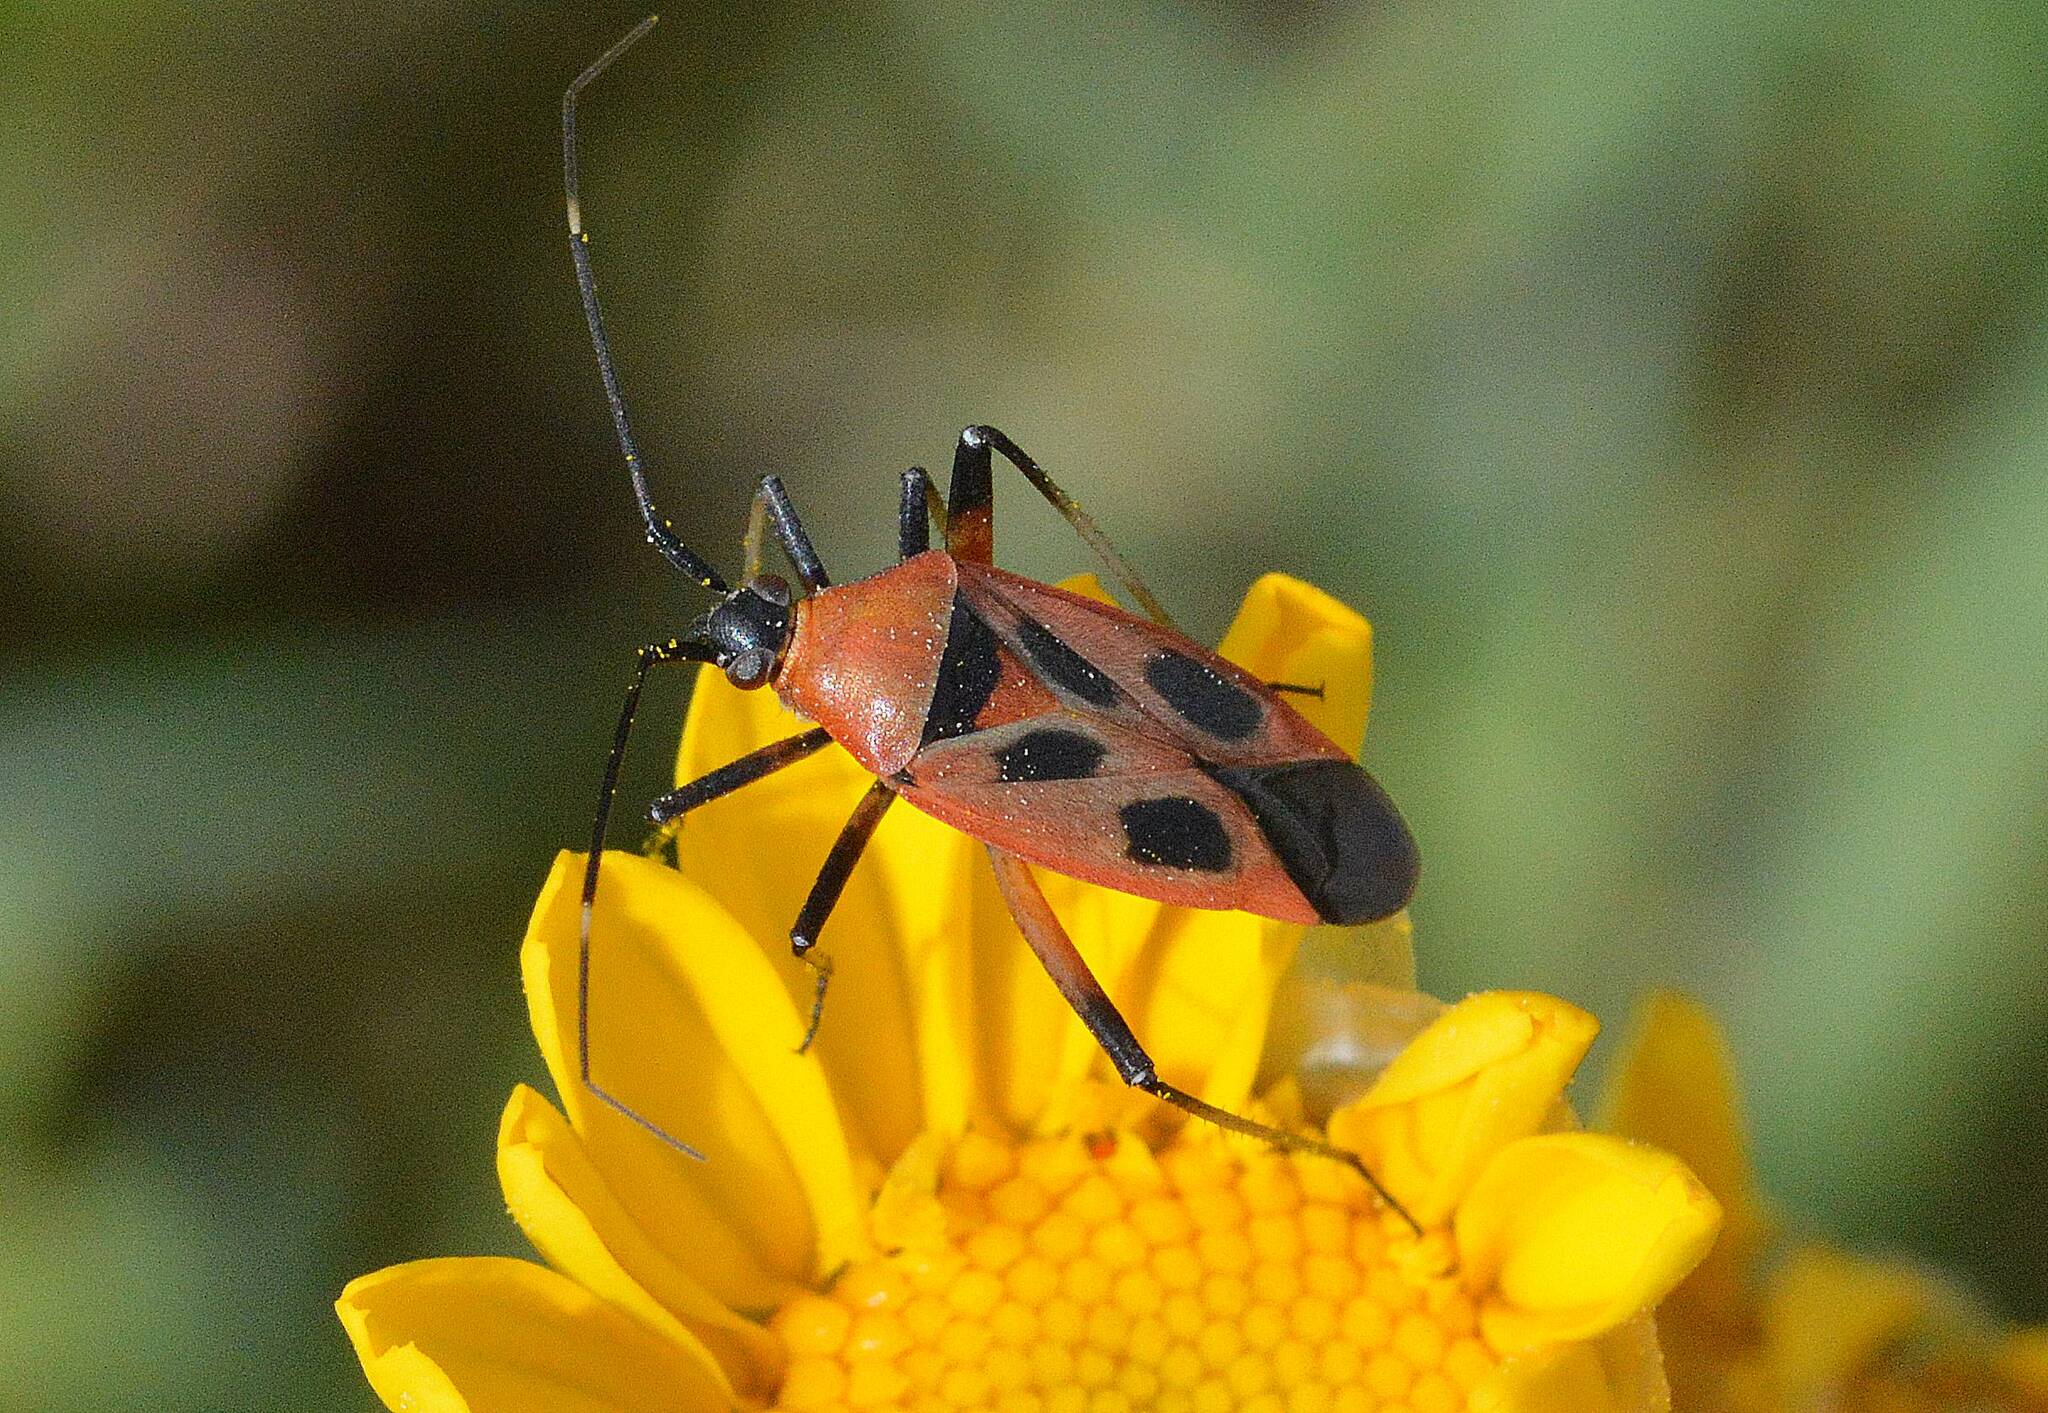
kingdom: Animalia
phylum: Arthropoda
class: Insecta
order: Hemiptera
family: Miridae
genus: Calocoris
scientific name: Calocoris nemoralis
